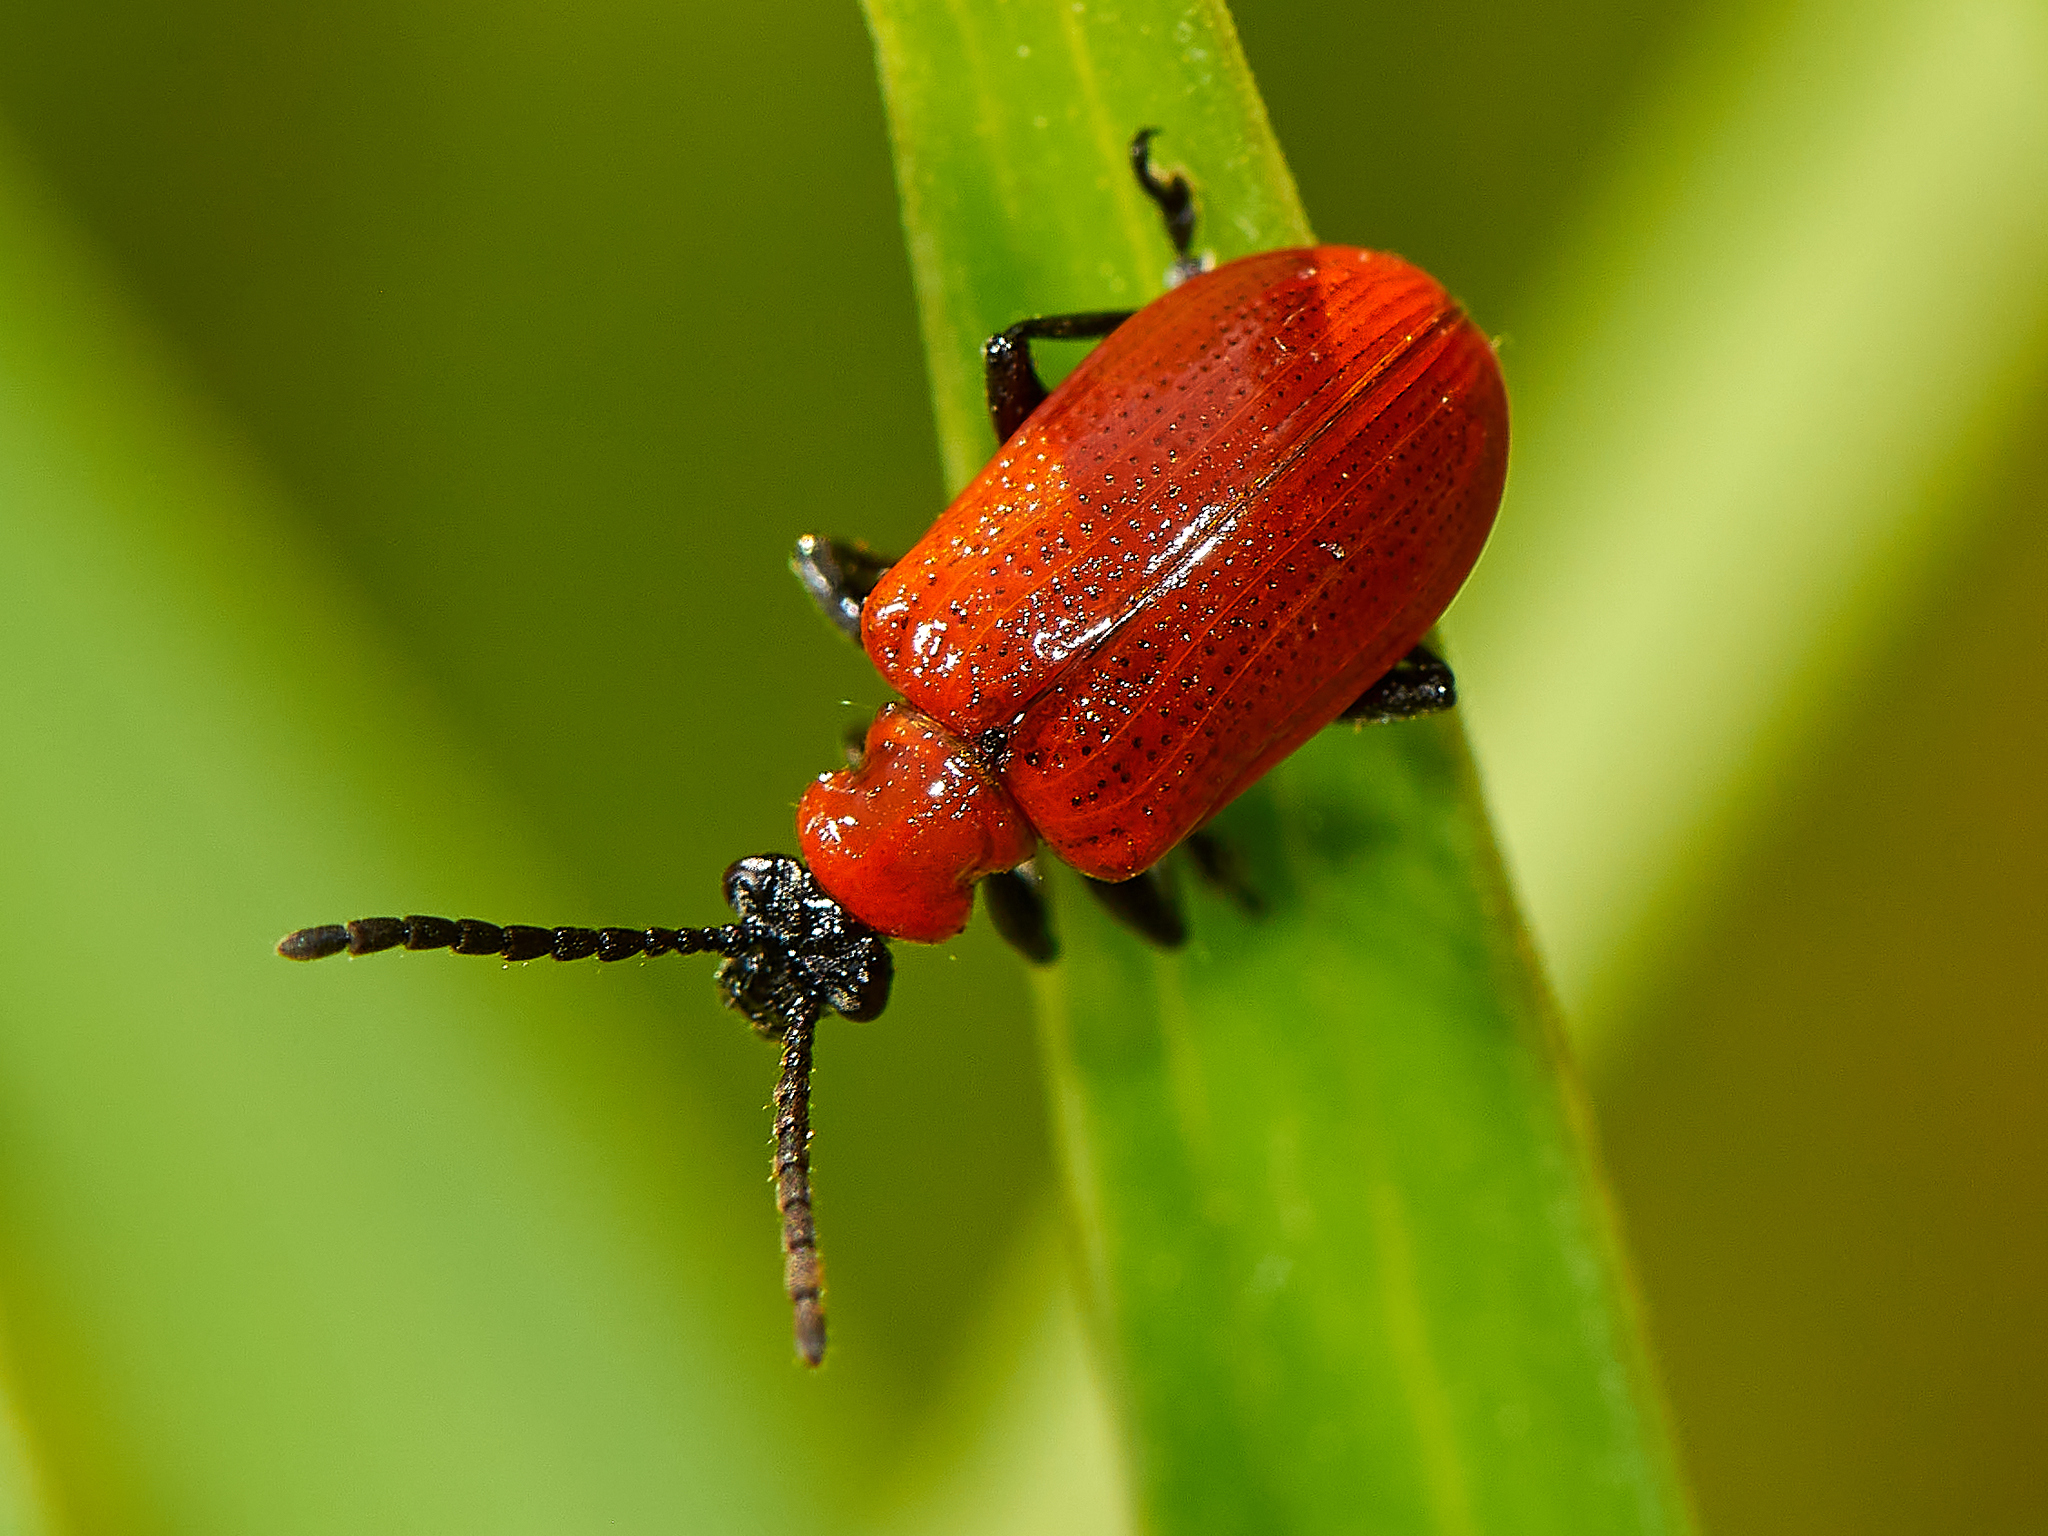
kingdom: Animalia
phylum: Arthropoda
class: Insecta
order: Coleoptera
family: Chrysomelidae
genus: Lilioceris
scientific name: Lilioceris lilii
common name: Lily beetle
